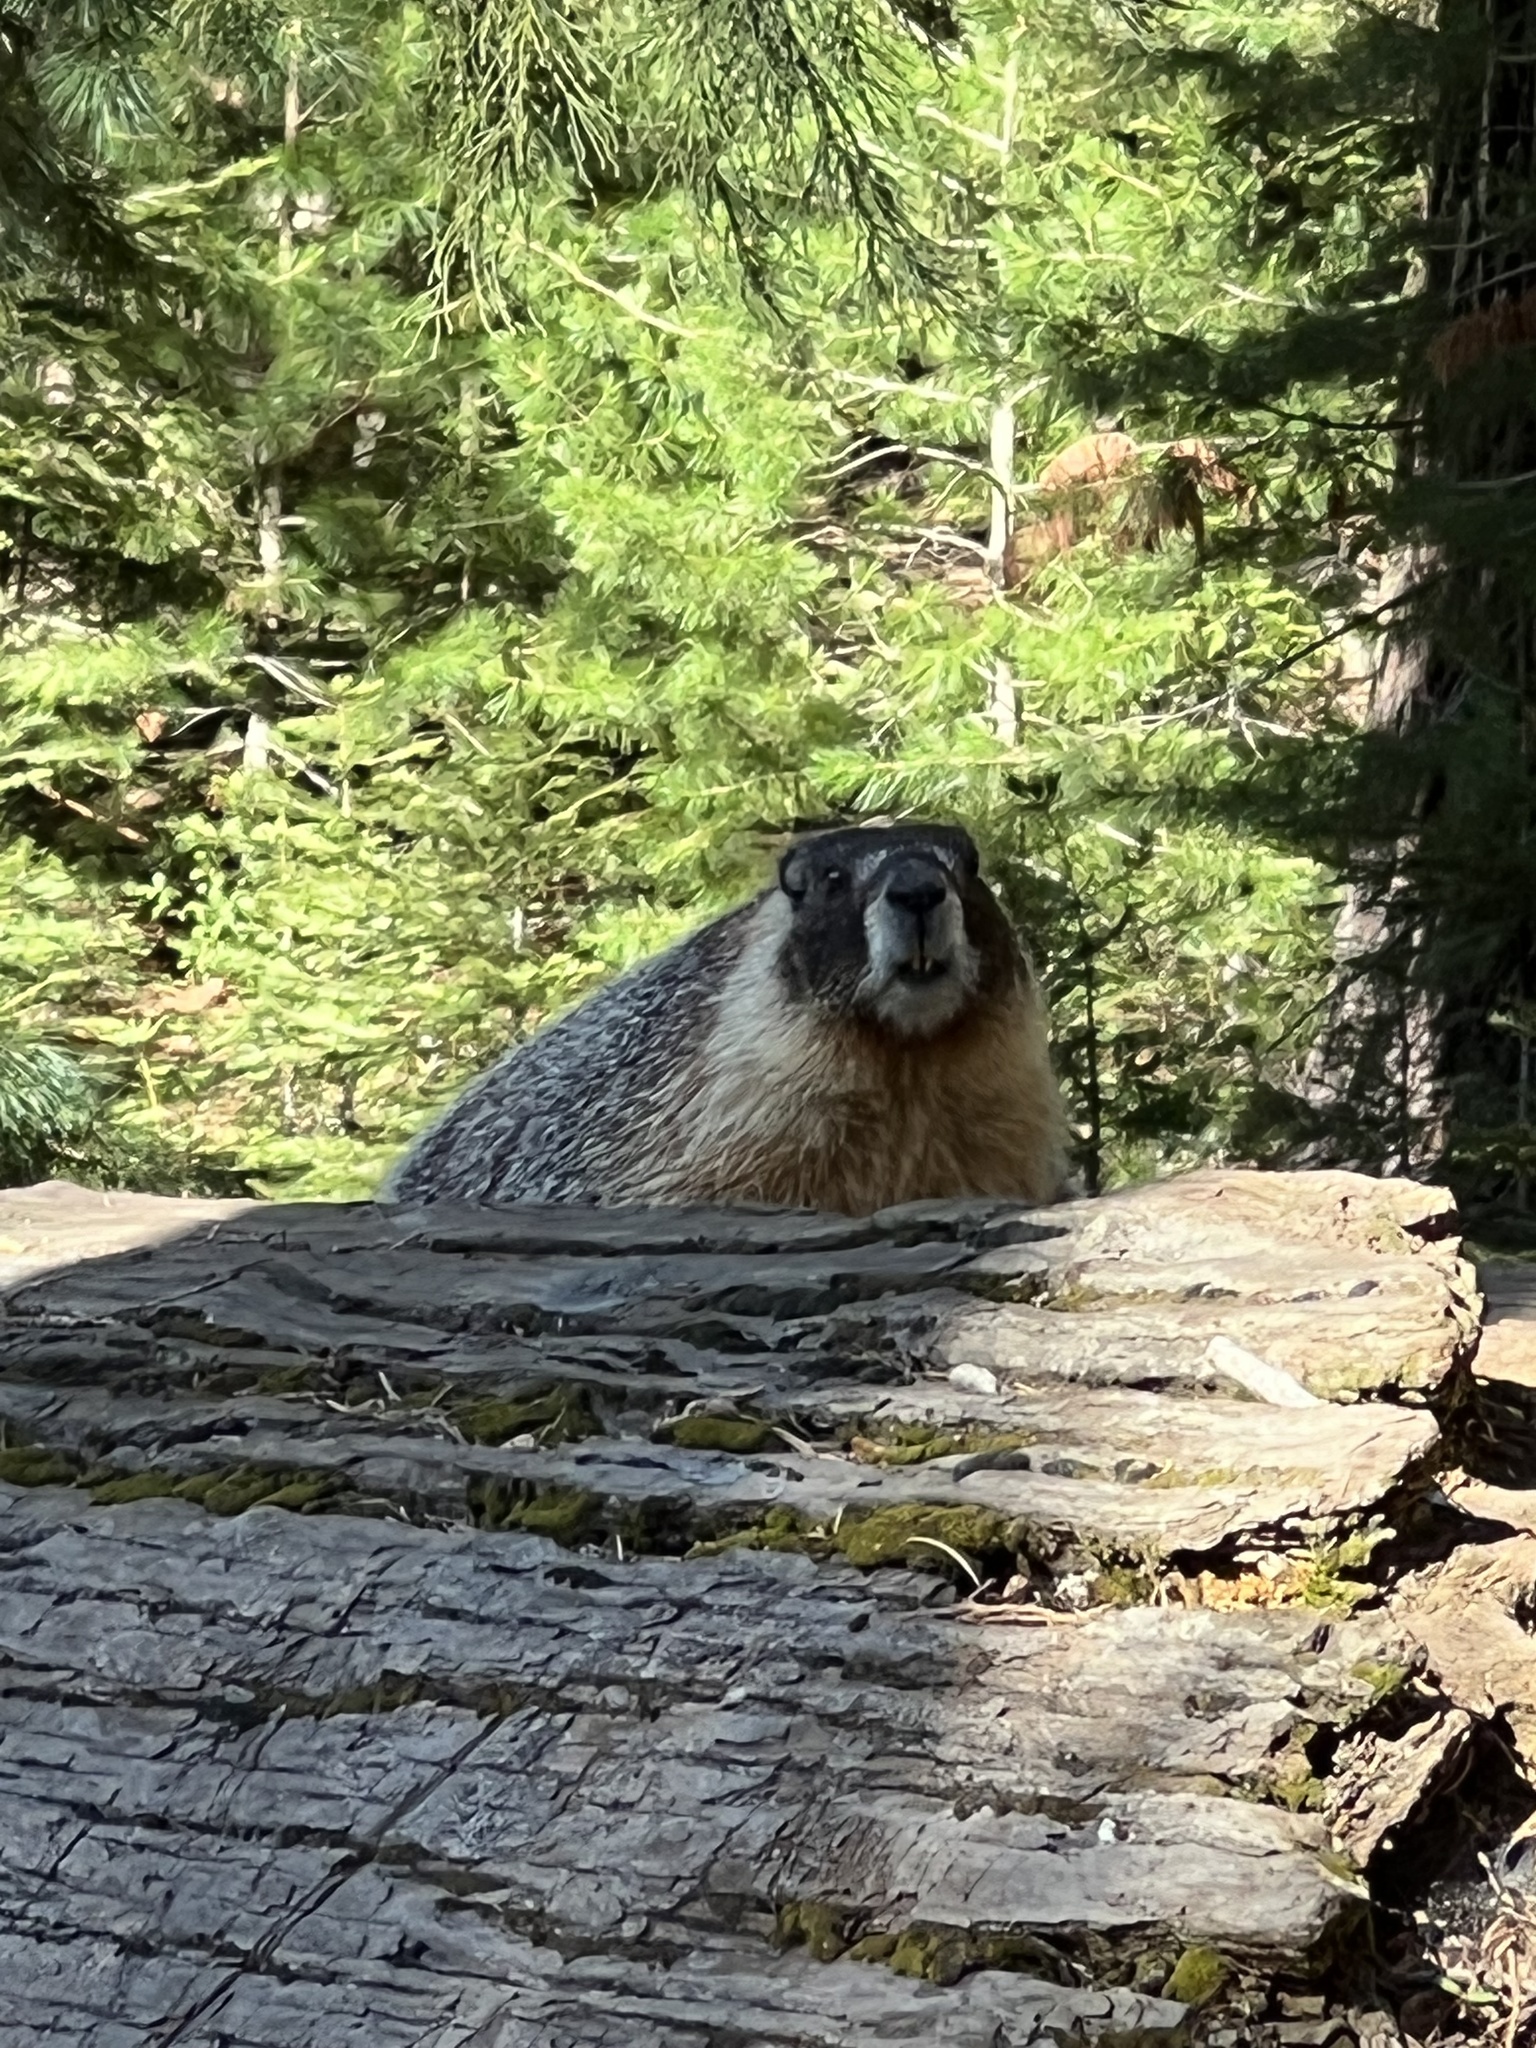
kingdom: Animalia
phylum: Chordata
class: Mammalia
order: Rodentia
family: Sciuridae
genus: Marmota
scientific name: Marmota flaviventris
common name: Yellow-bellied marmot
